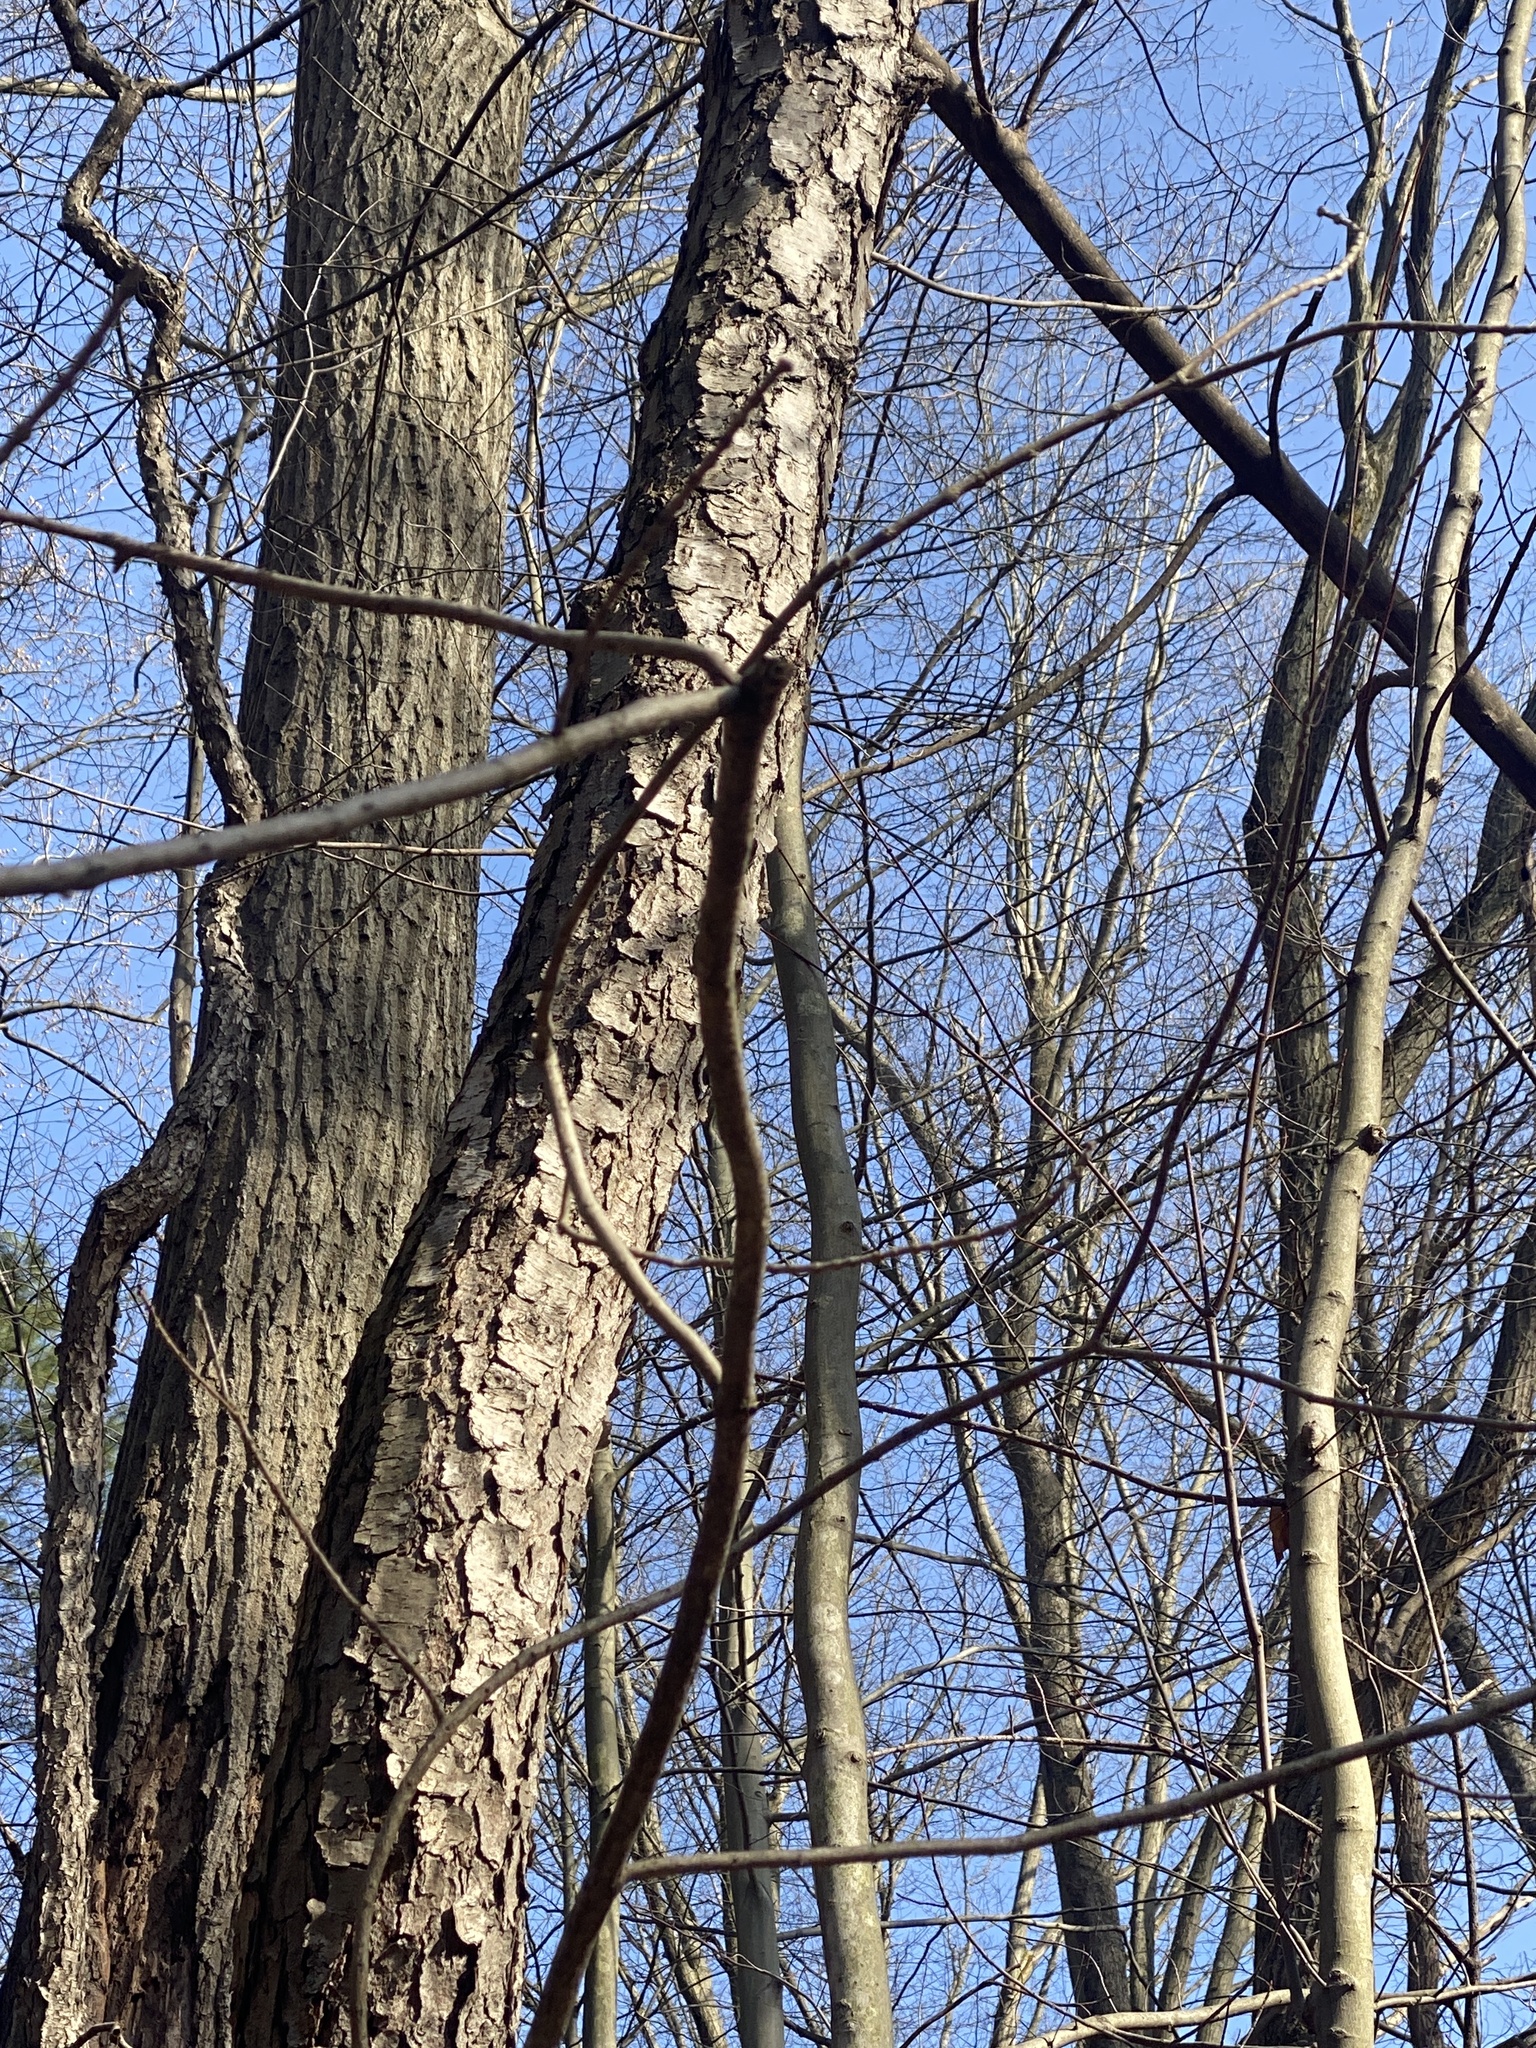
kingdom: Plantae
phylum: Tracheophyta
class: Magnoliopsida
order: Rosales
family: Rosaceae
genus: Prunus
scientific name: Prunus serotina
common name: Black cherry
